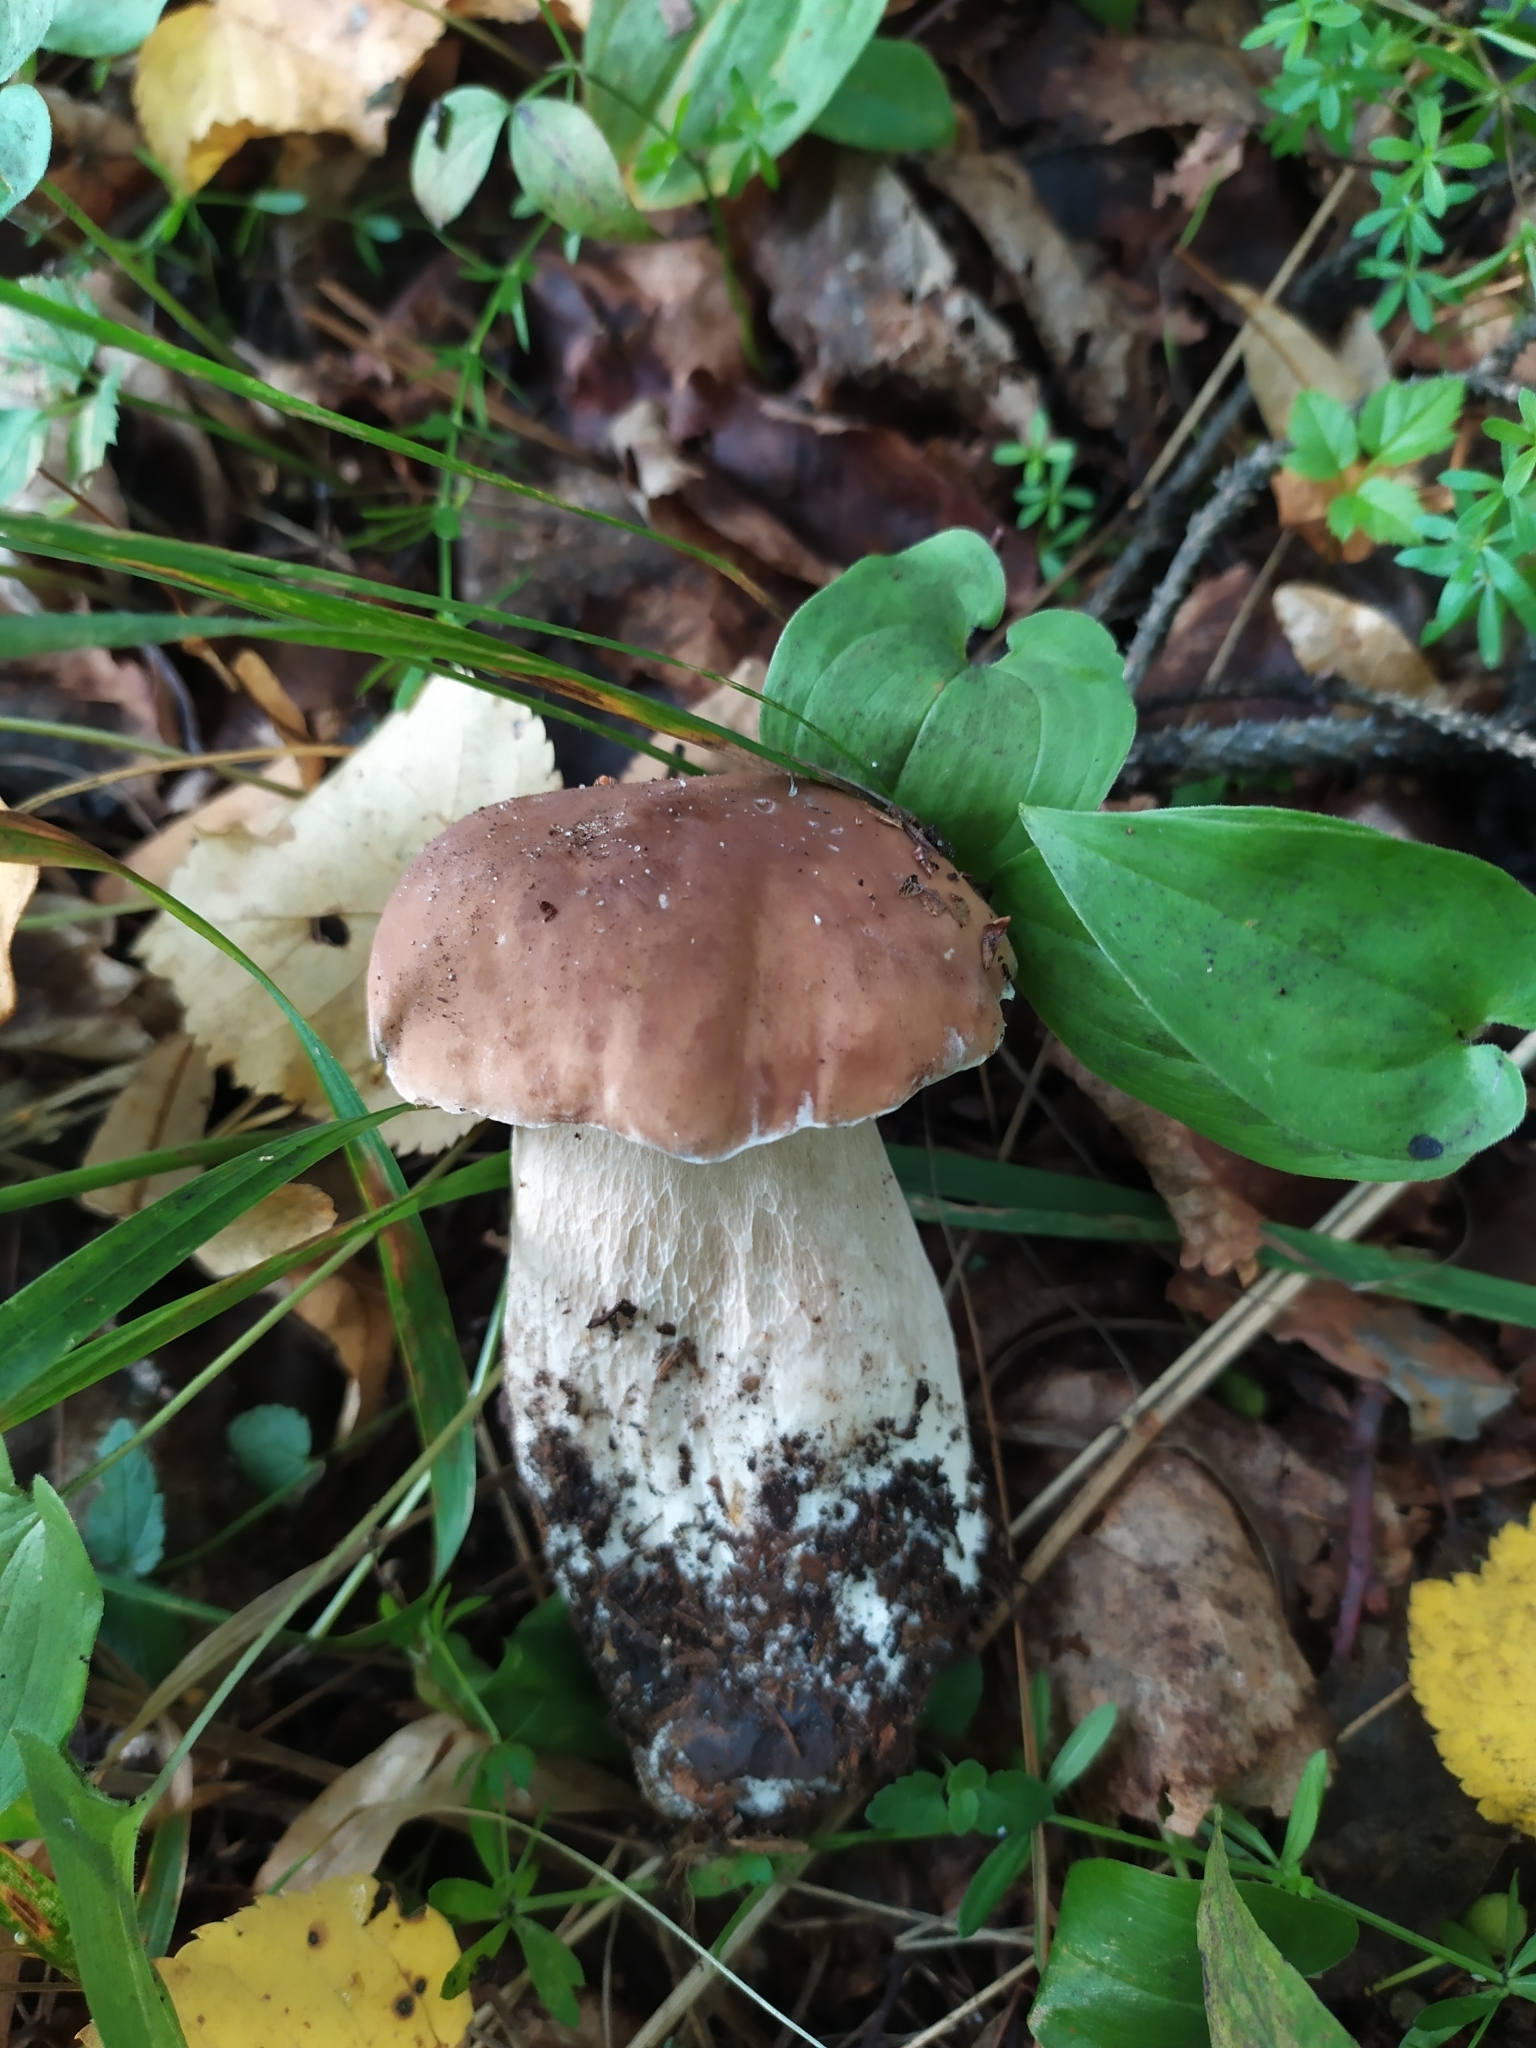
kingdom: Fungi
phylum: Basidiomycota
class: Agaricomycetes
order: Boletales
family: Boletaceae
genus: Boletus
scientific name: Boletus edulis
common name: Cep
